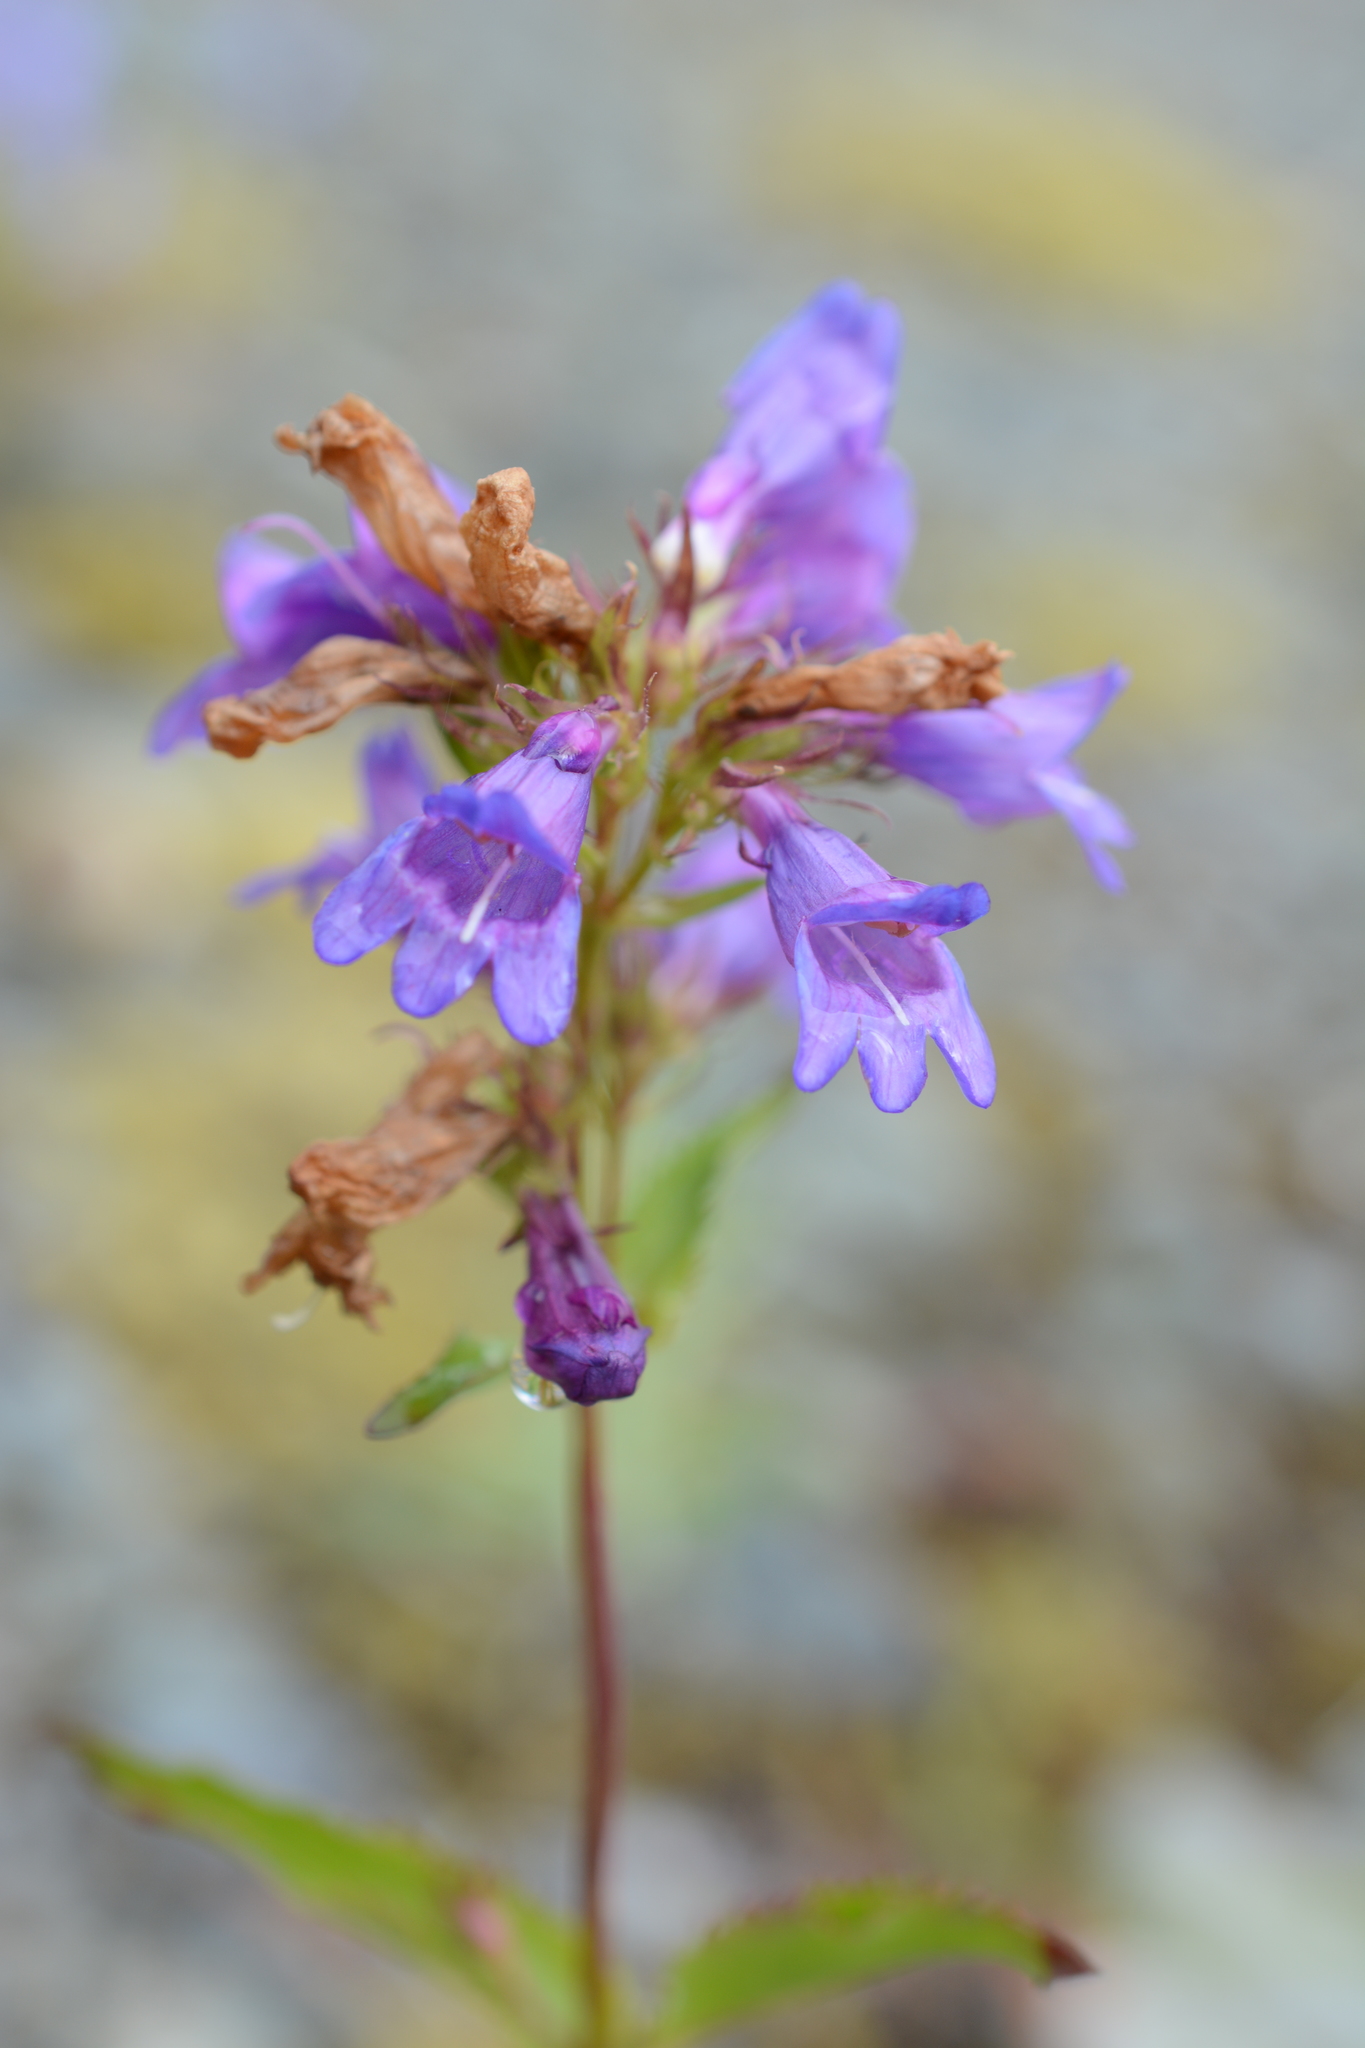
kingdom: Plantae
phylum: Tracheophyta
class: Magnoliopsida
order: Lamiales
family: Plantaginaceae
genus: Penstemon
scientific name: Penstemon serrulatus
